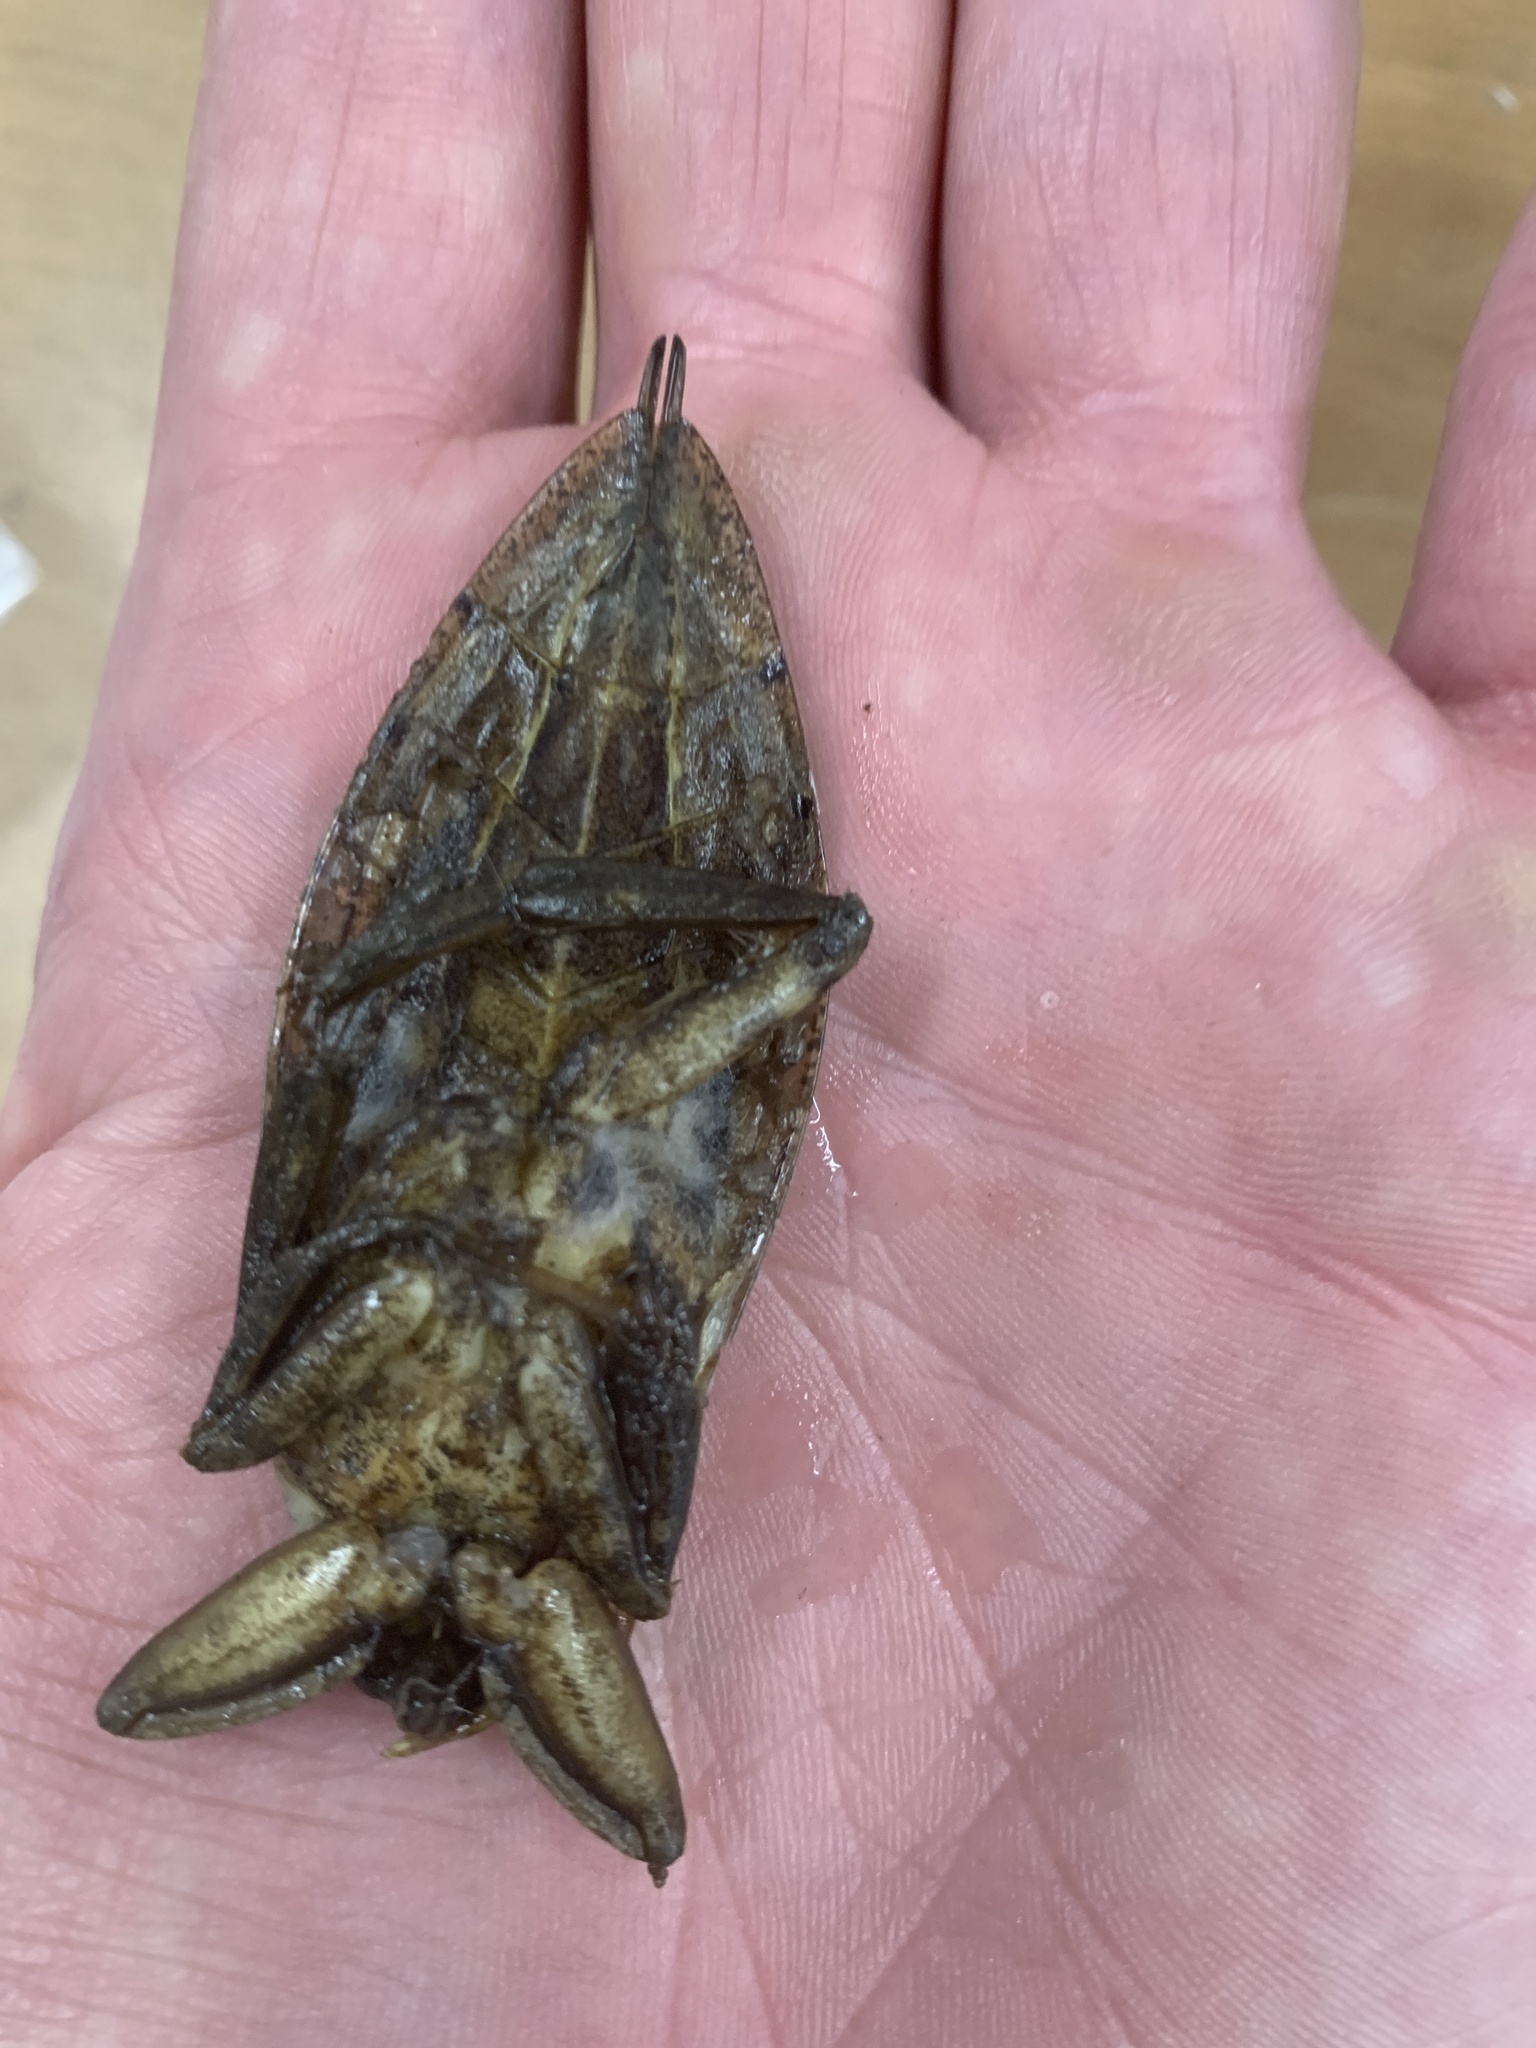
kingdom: Animalia
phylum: Arthropoda
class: Insecta
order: Hemiptera
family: Belostomatidae
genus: Lethocerus
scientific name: Lethocerus americanus
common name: Giant water bug
